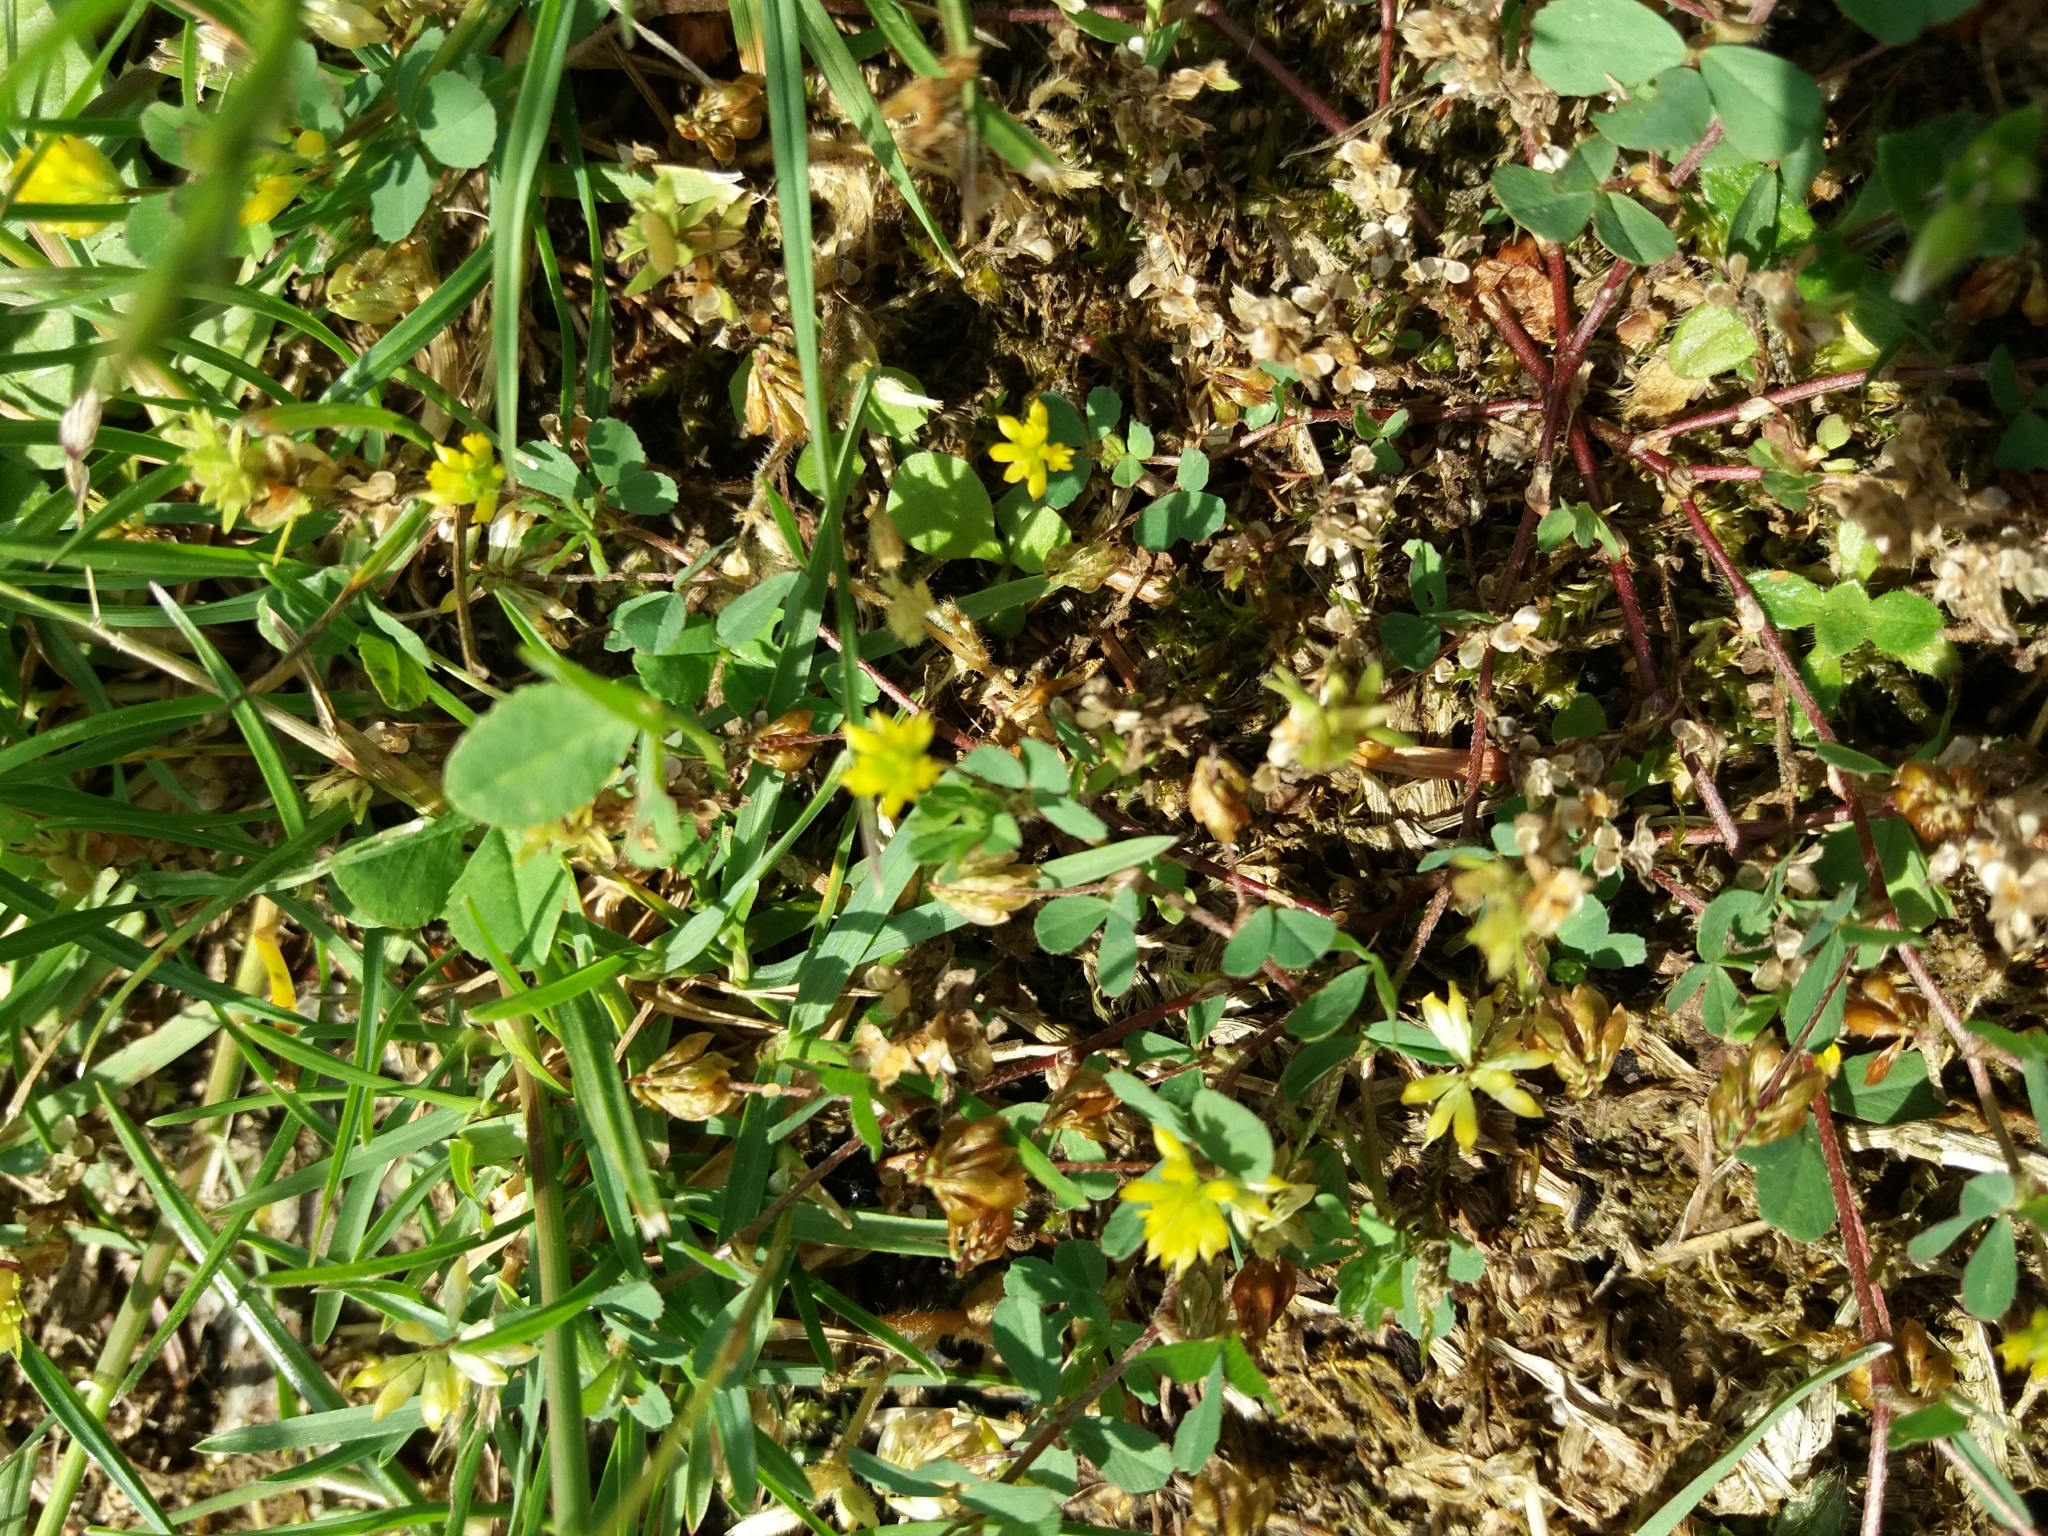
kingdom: Plantae
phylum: Tracheophyta
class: Magnoliopsida
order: Fabales
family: Fabaceae
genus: Trifolium
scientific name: Trifolium dubium
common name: Suckling clover
